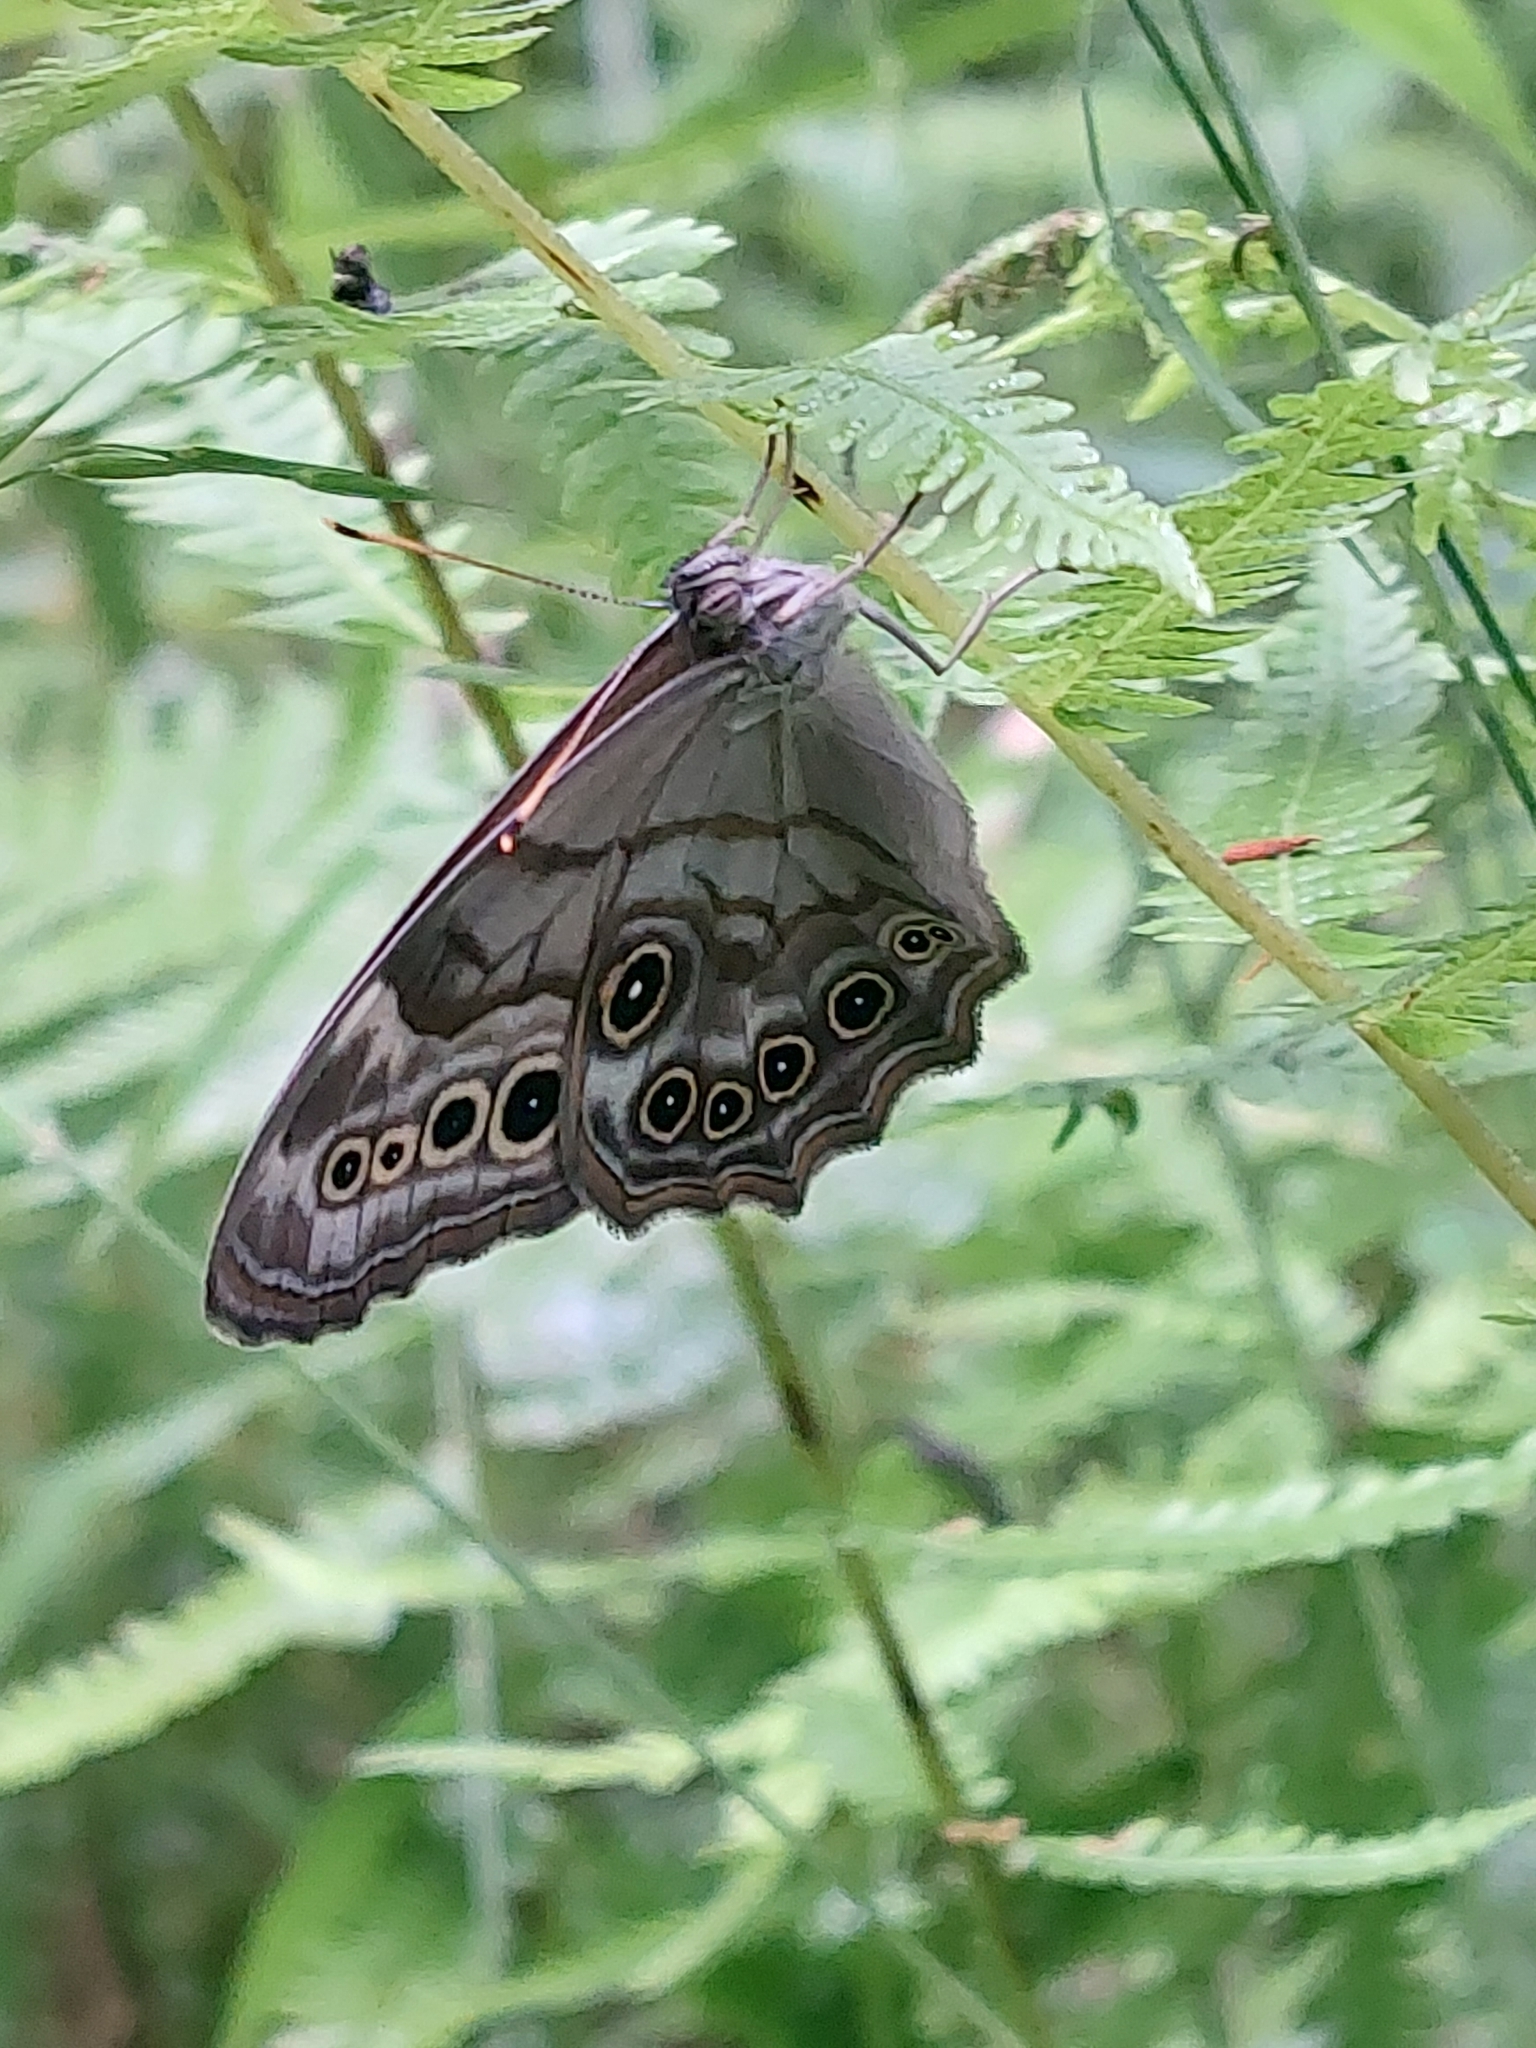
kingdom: Animalia
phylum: Arthropoda
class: Insecta
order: Lepidoptera
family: Nymphalidae
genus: Lethe
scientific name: Lethe anthedon
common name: Northern pearly-eye
